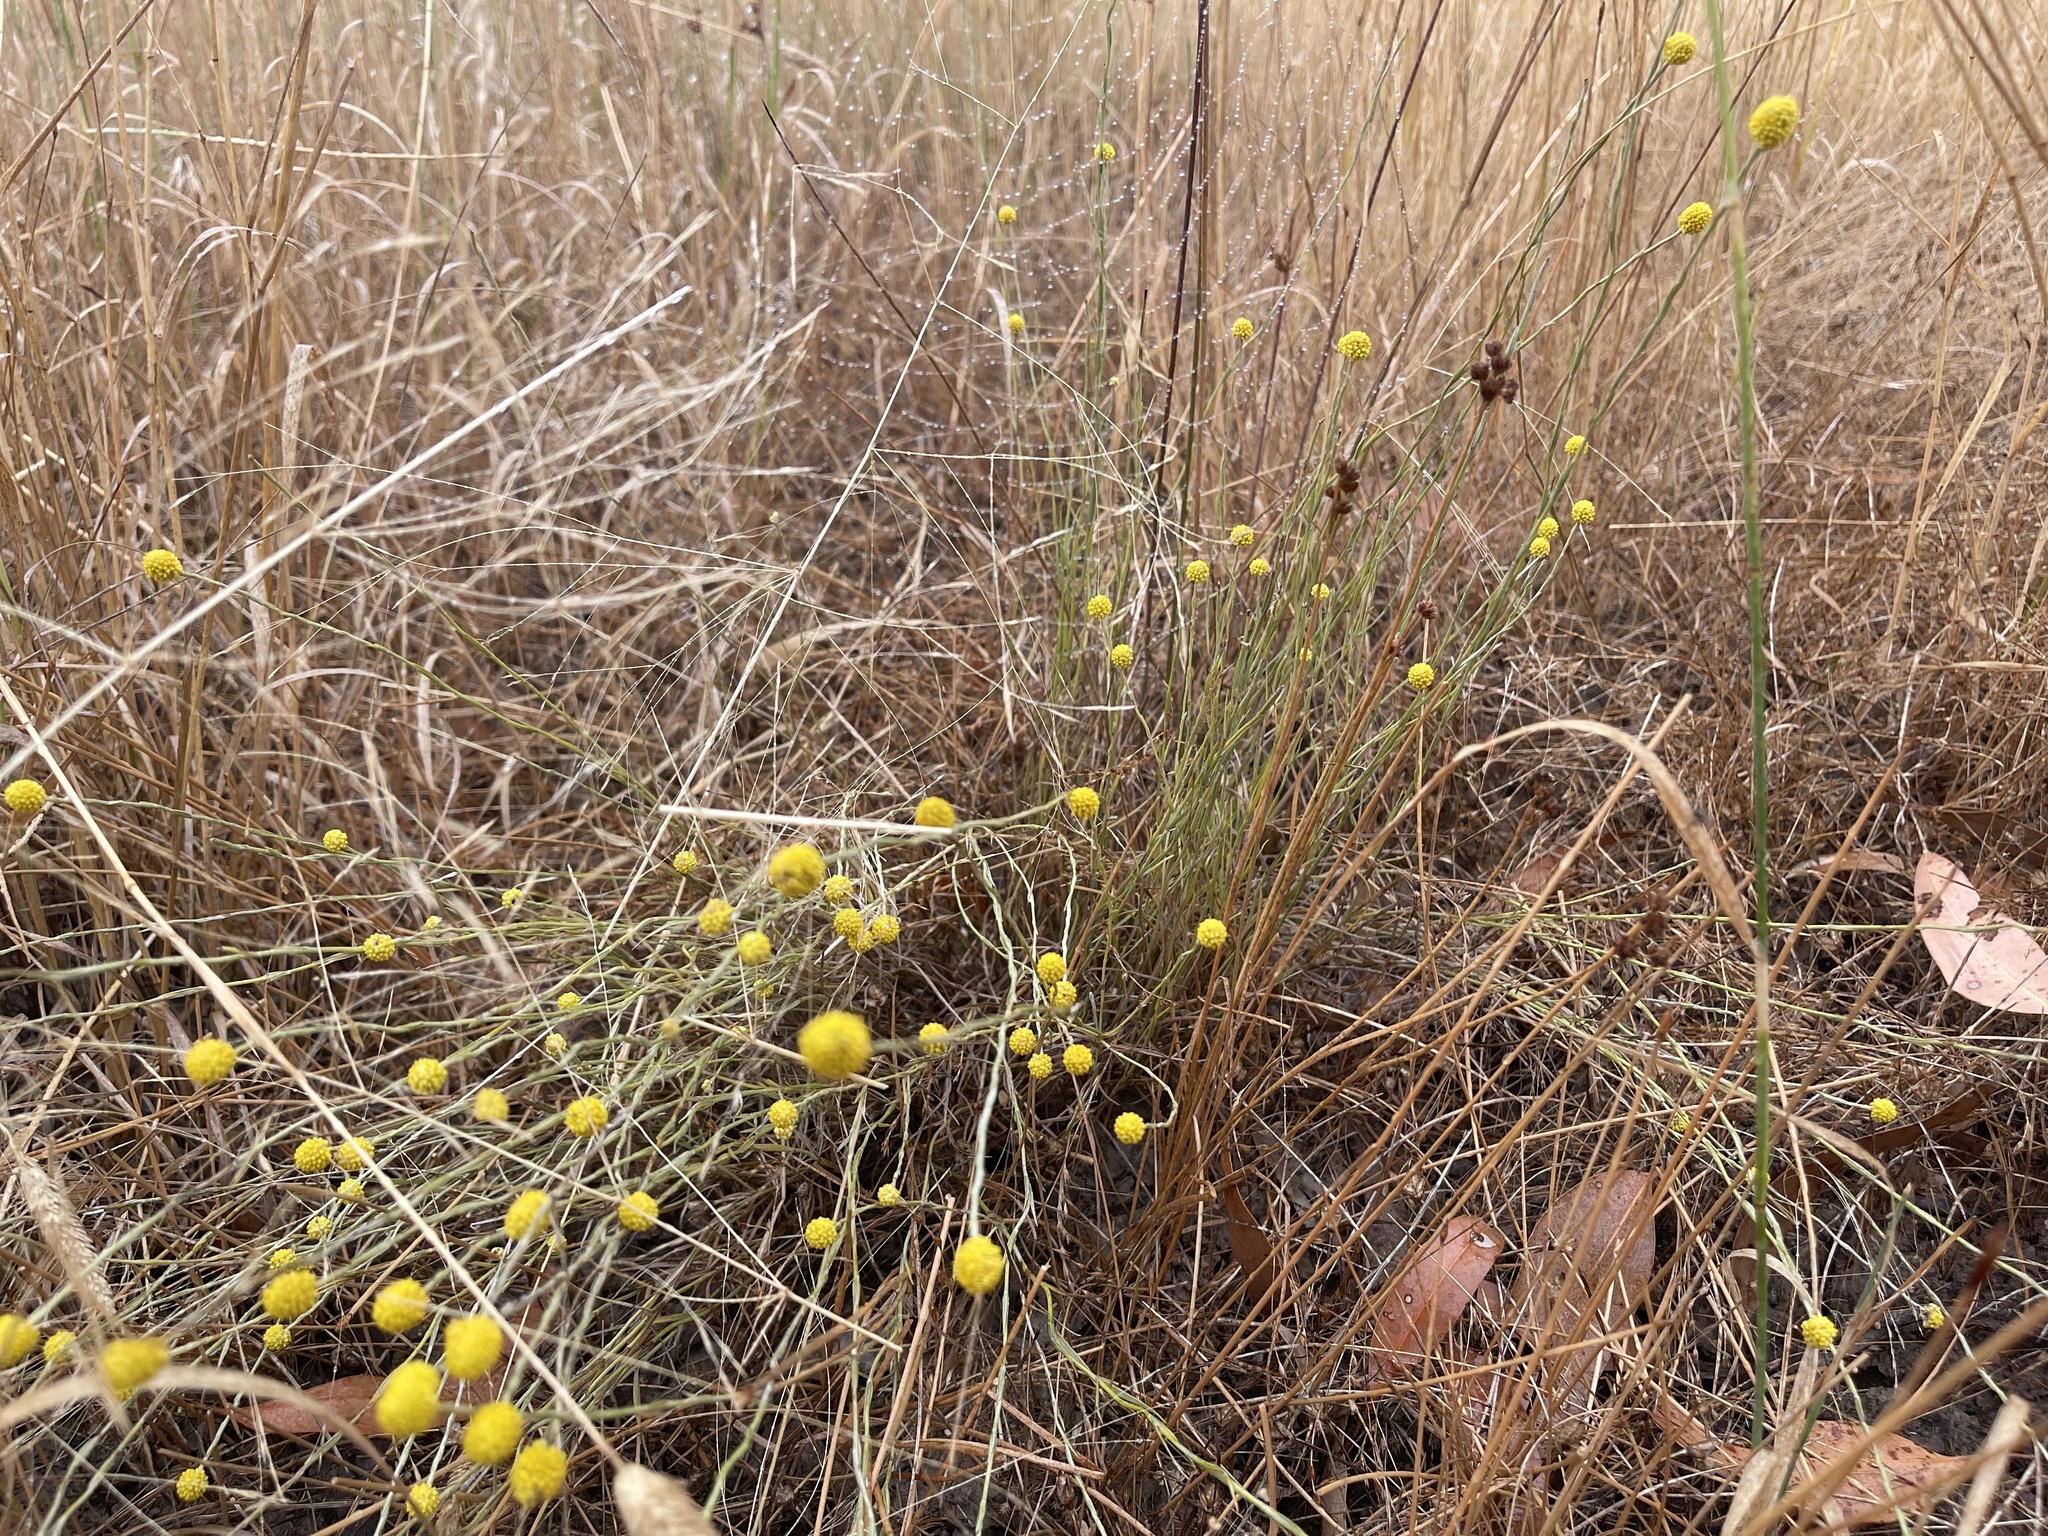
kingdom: Plantae
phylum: Tracheophyta
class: Magnoliopsida
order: Asterales
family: Asteraceae
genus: Calocephalus
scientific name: Calocephalus citreus
